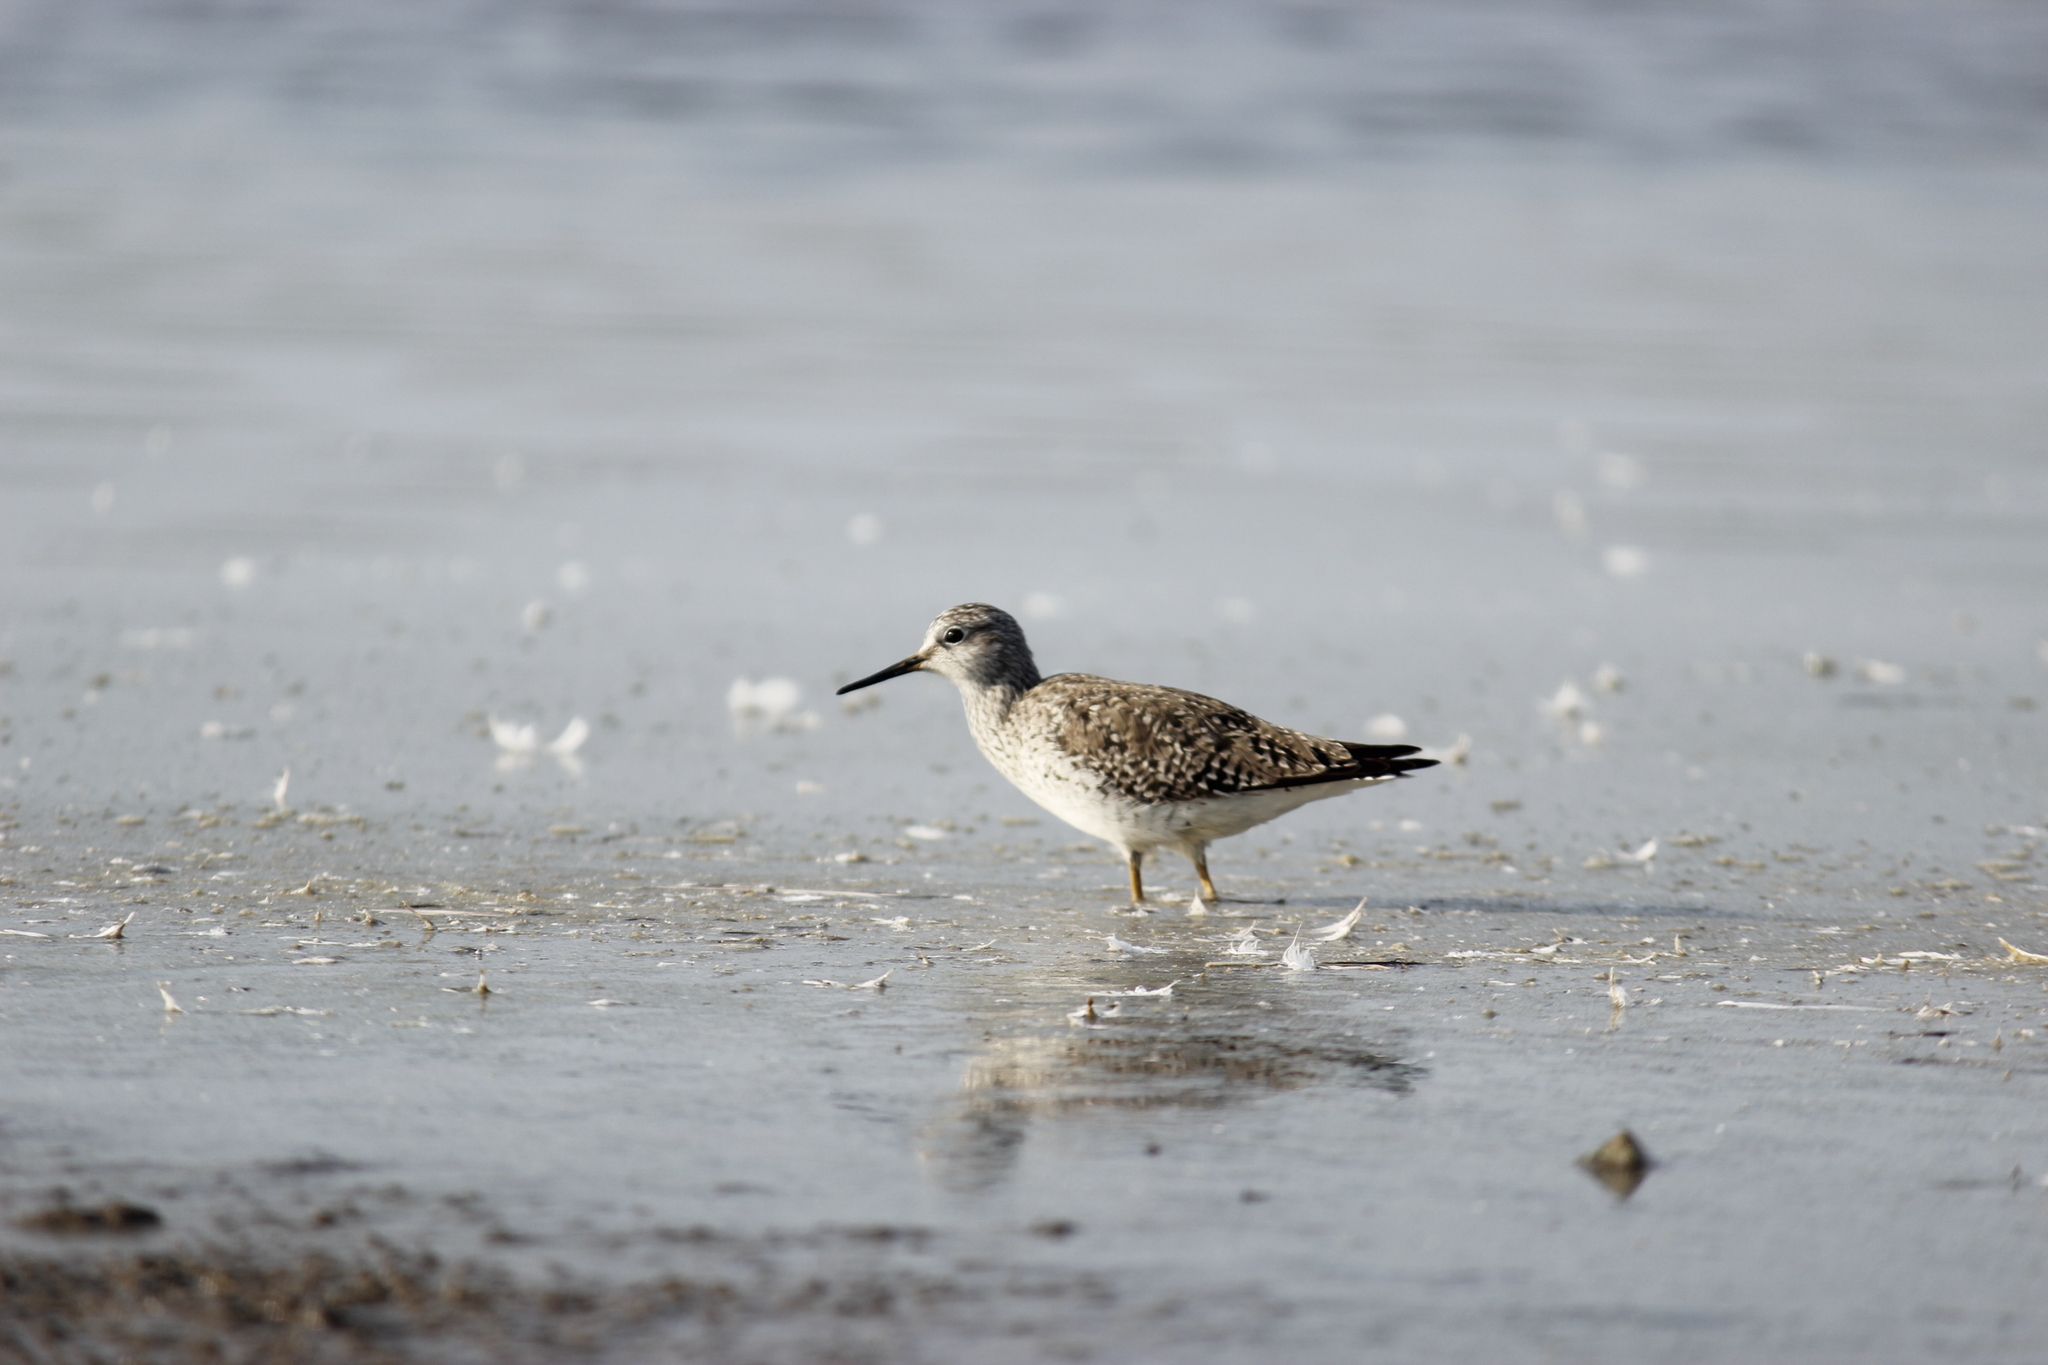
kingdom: Animalia
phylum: Chordata
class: Aves
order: Charadriiformes
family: Scolopacidae
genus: Tringa
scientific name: Tringa flavipes
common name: Lesser yellowlegs
